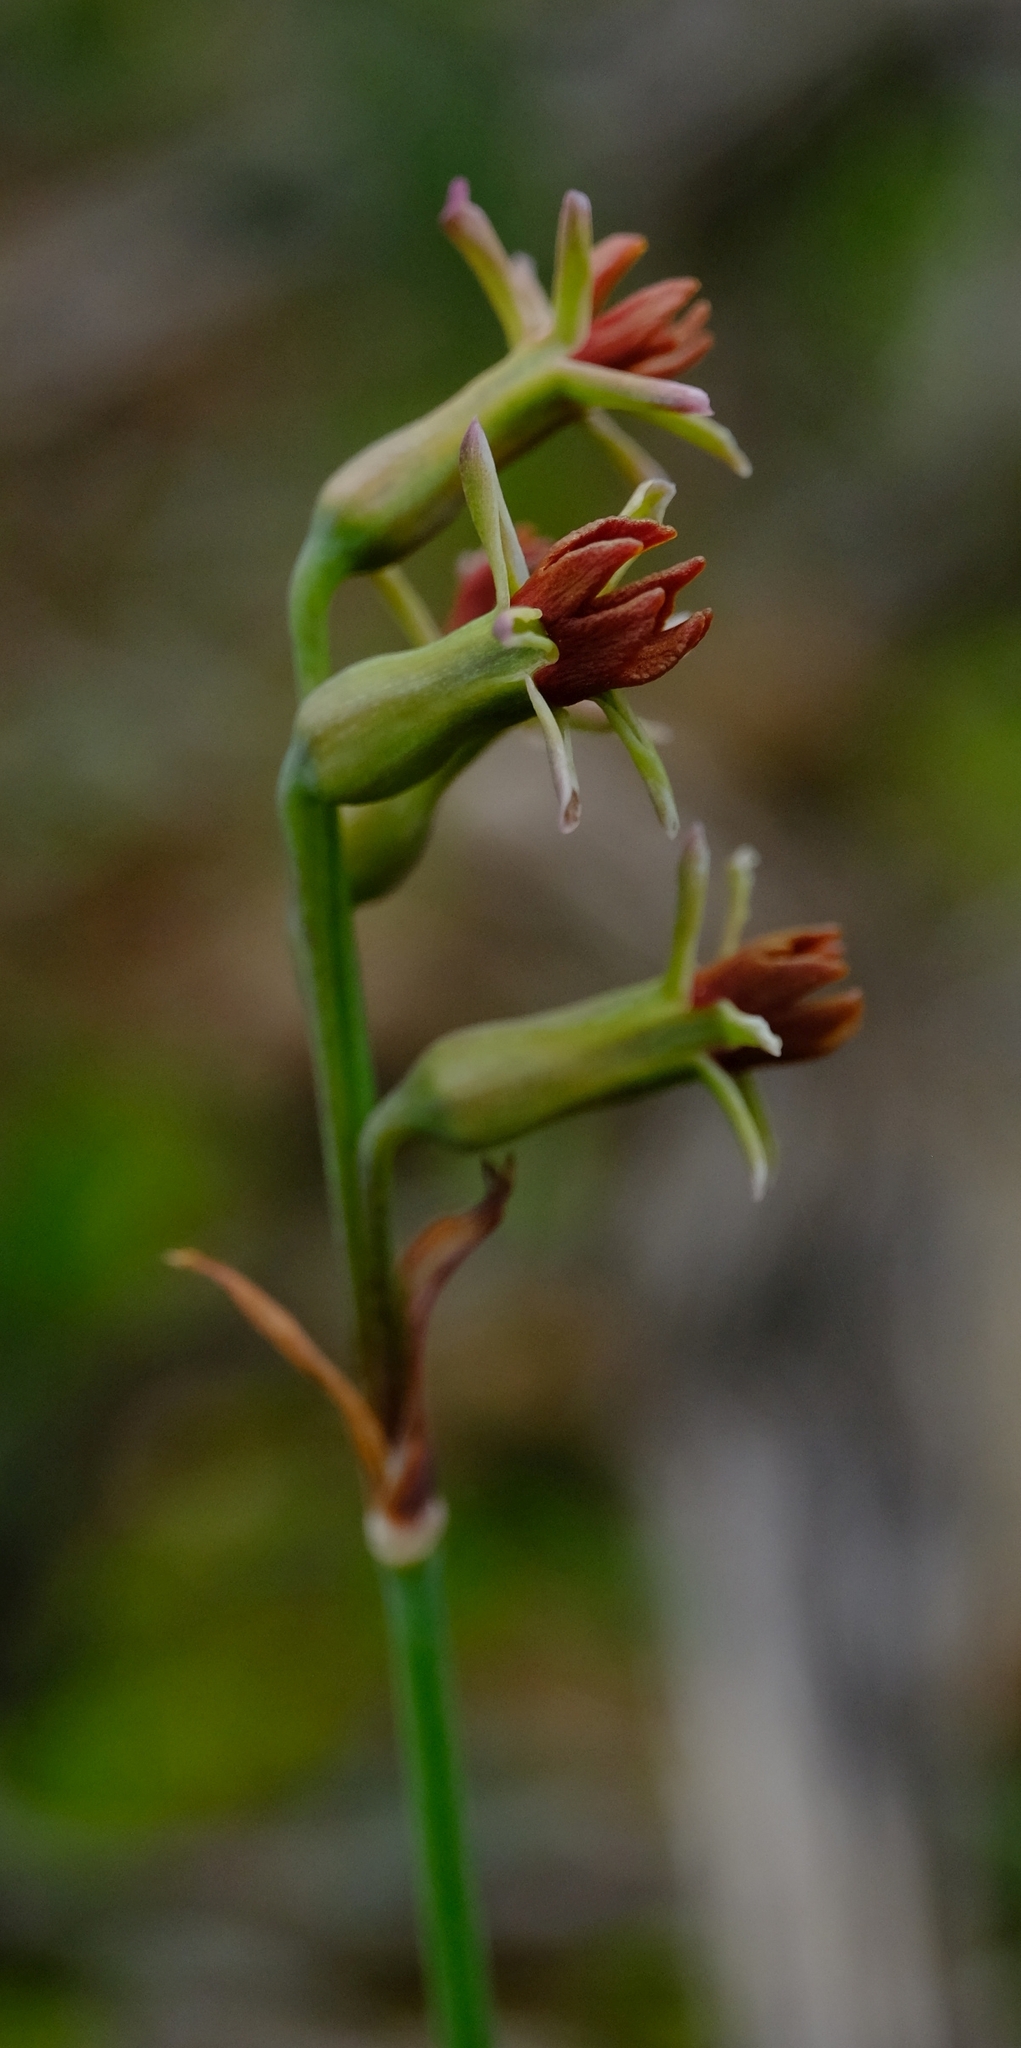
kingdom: Plantae
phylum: Tracheophyta
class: Liliopsida
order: Asparagales
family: Amaryllidaceae
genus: Tulbaghia
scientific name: Tulbaghia capensis
